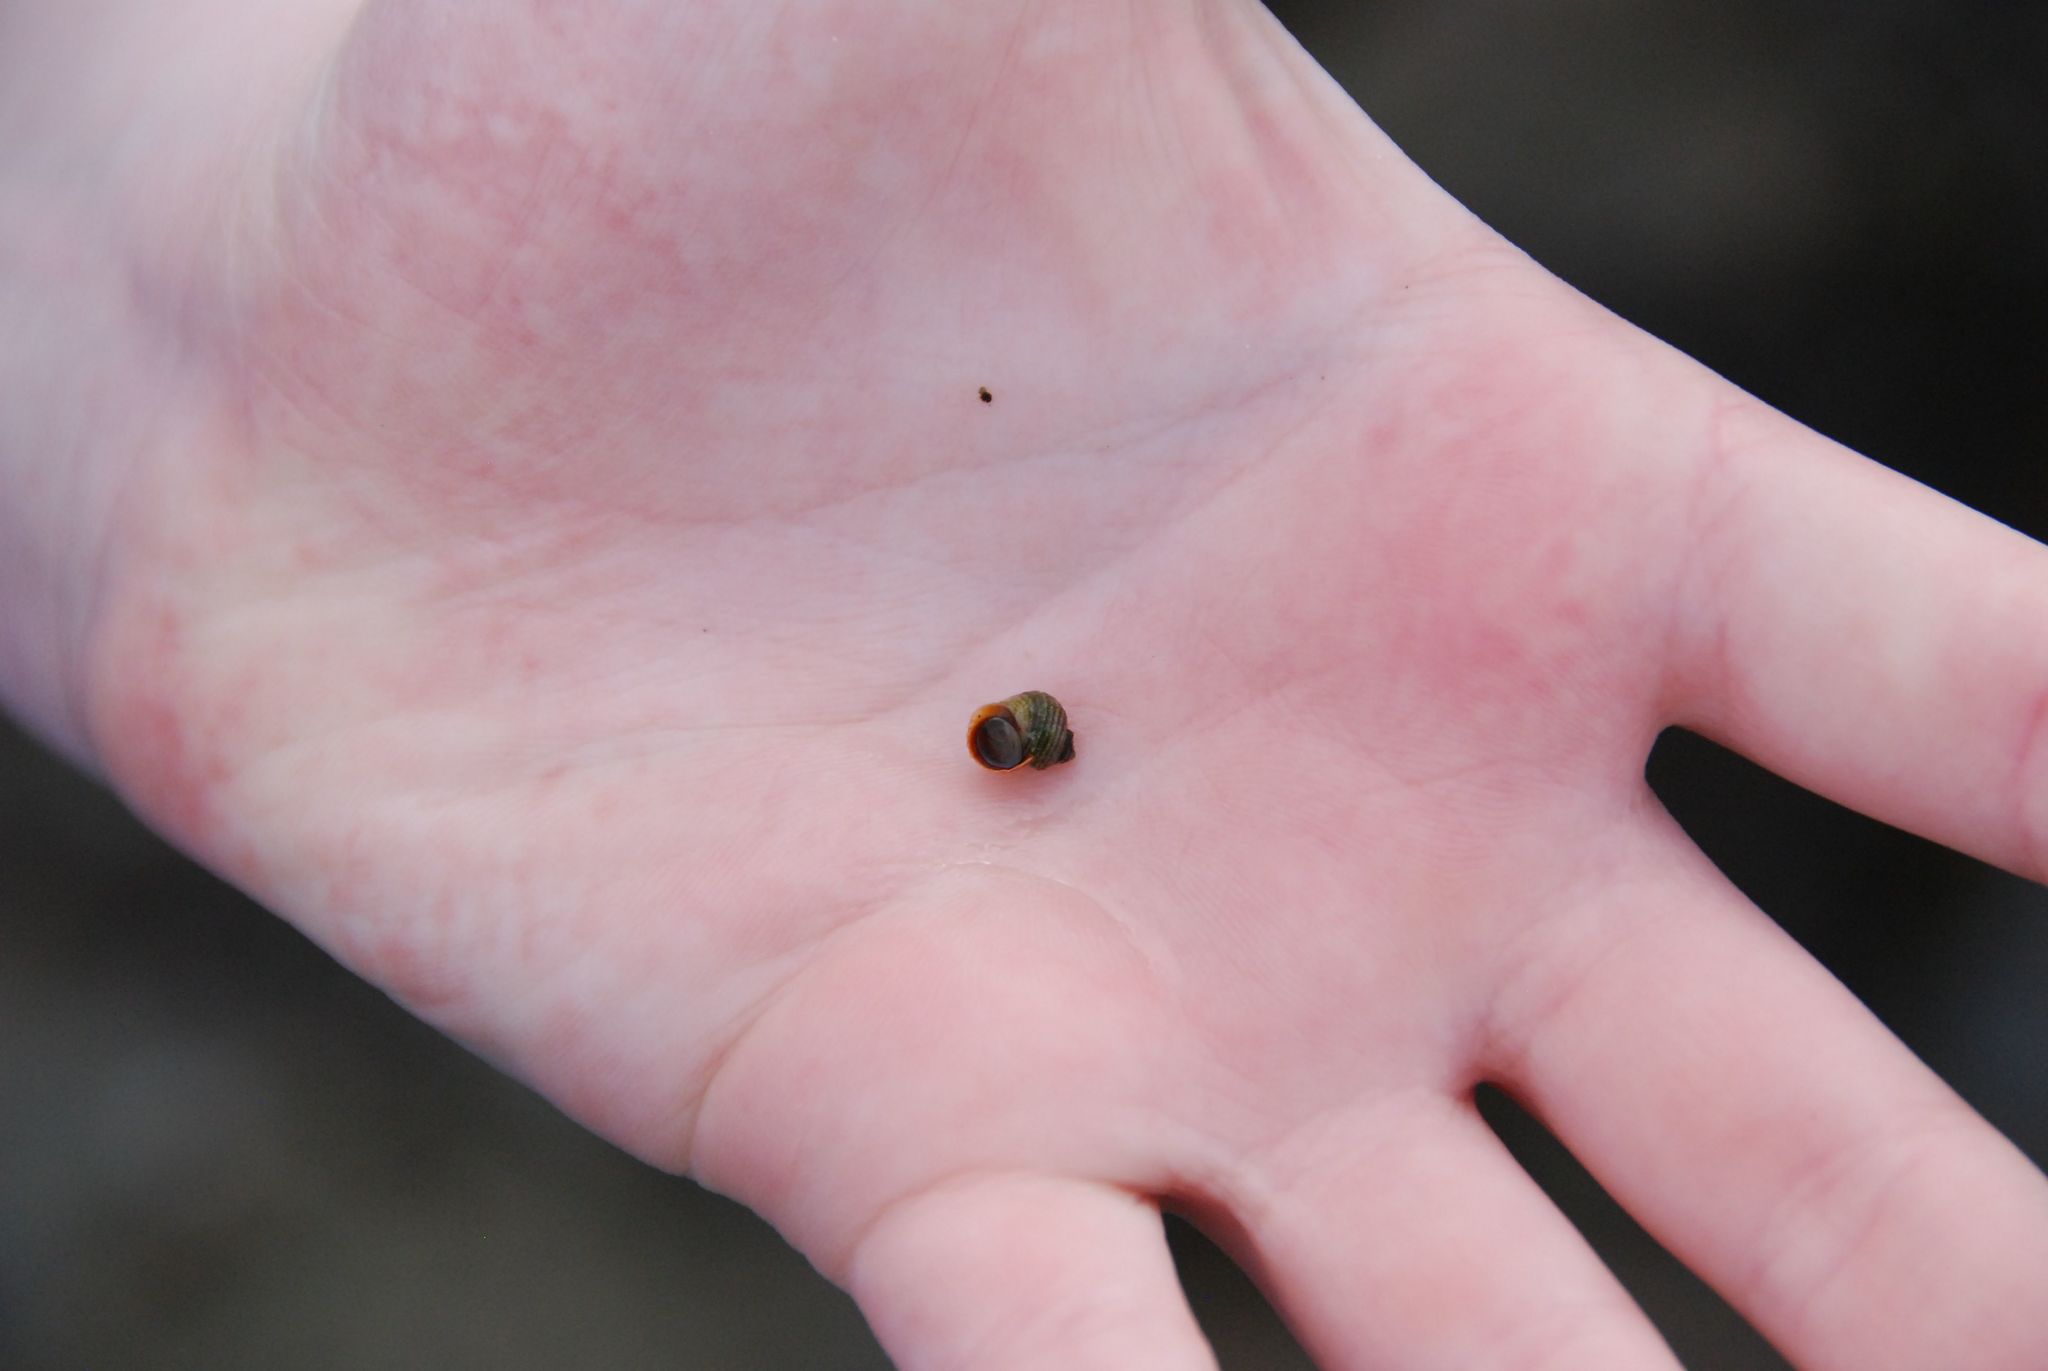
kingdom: Animalia
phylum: Mollusca
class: Gastropoda
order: Littorinimorpha
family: Littorinidae
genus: Littorina
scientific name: Littorina saxatilis
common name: Black-lined periwinkle
